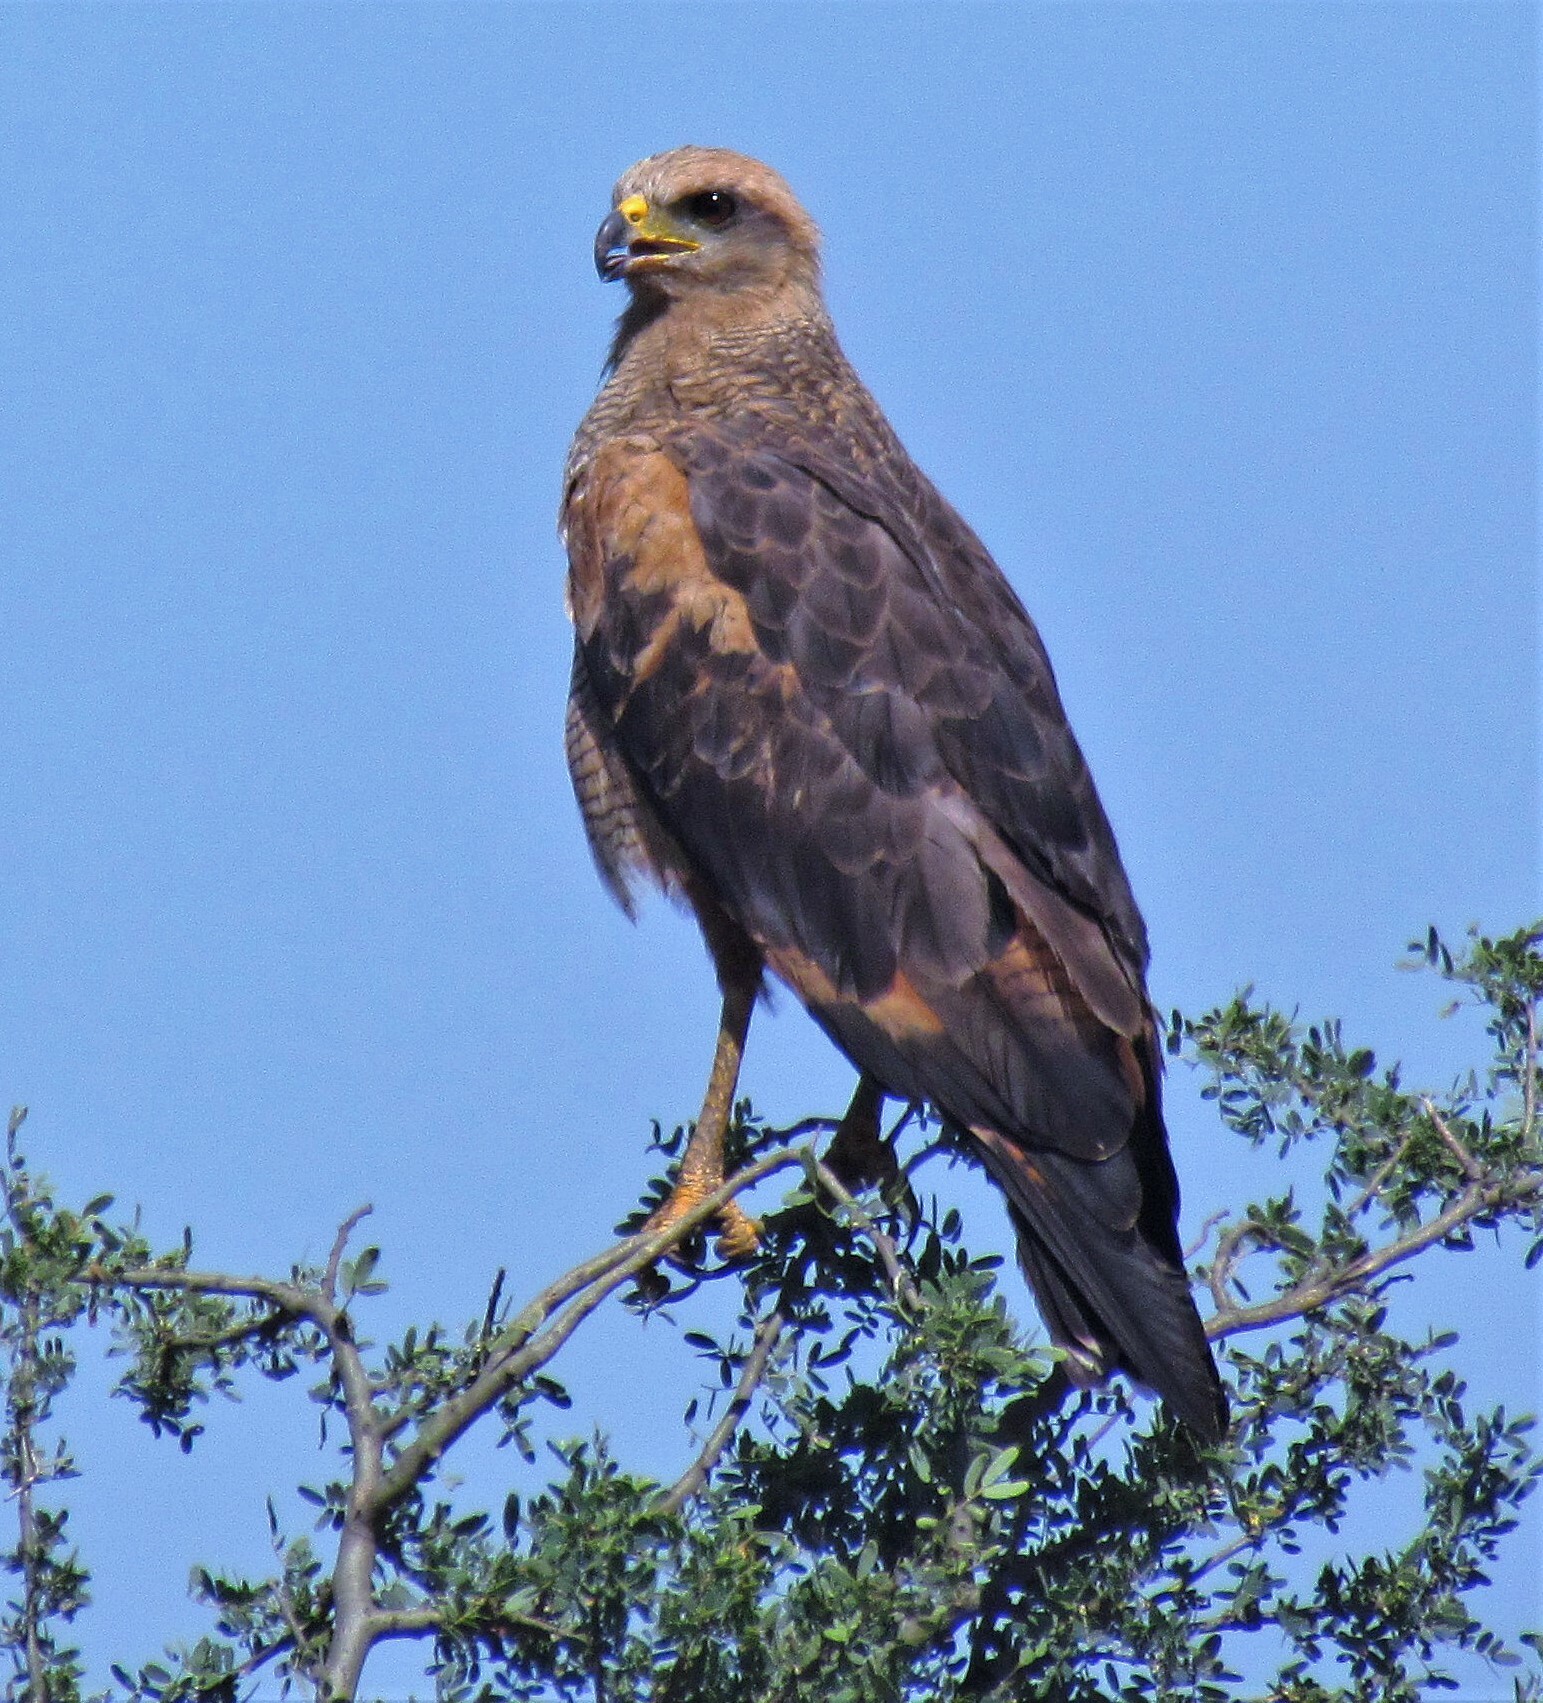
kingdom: Animalia
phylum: Chordata
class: Aves
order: Accipitriformes
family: Accipitridae
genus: Buteogallus
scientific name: Buteogallus meridionalis
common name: Savanna hawk
